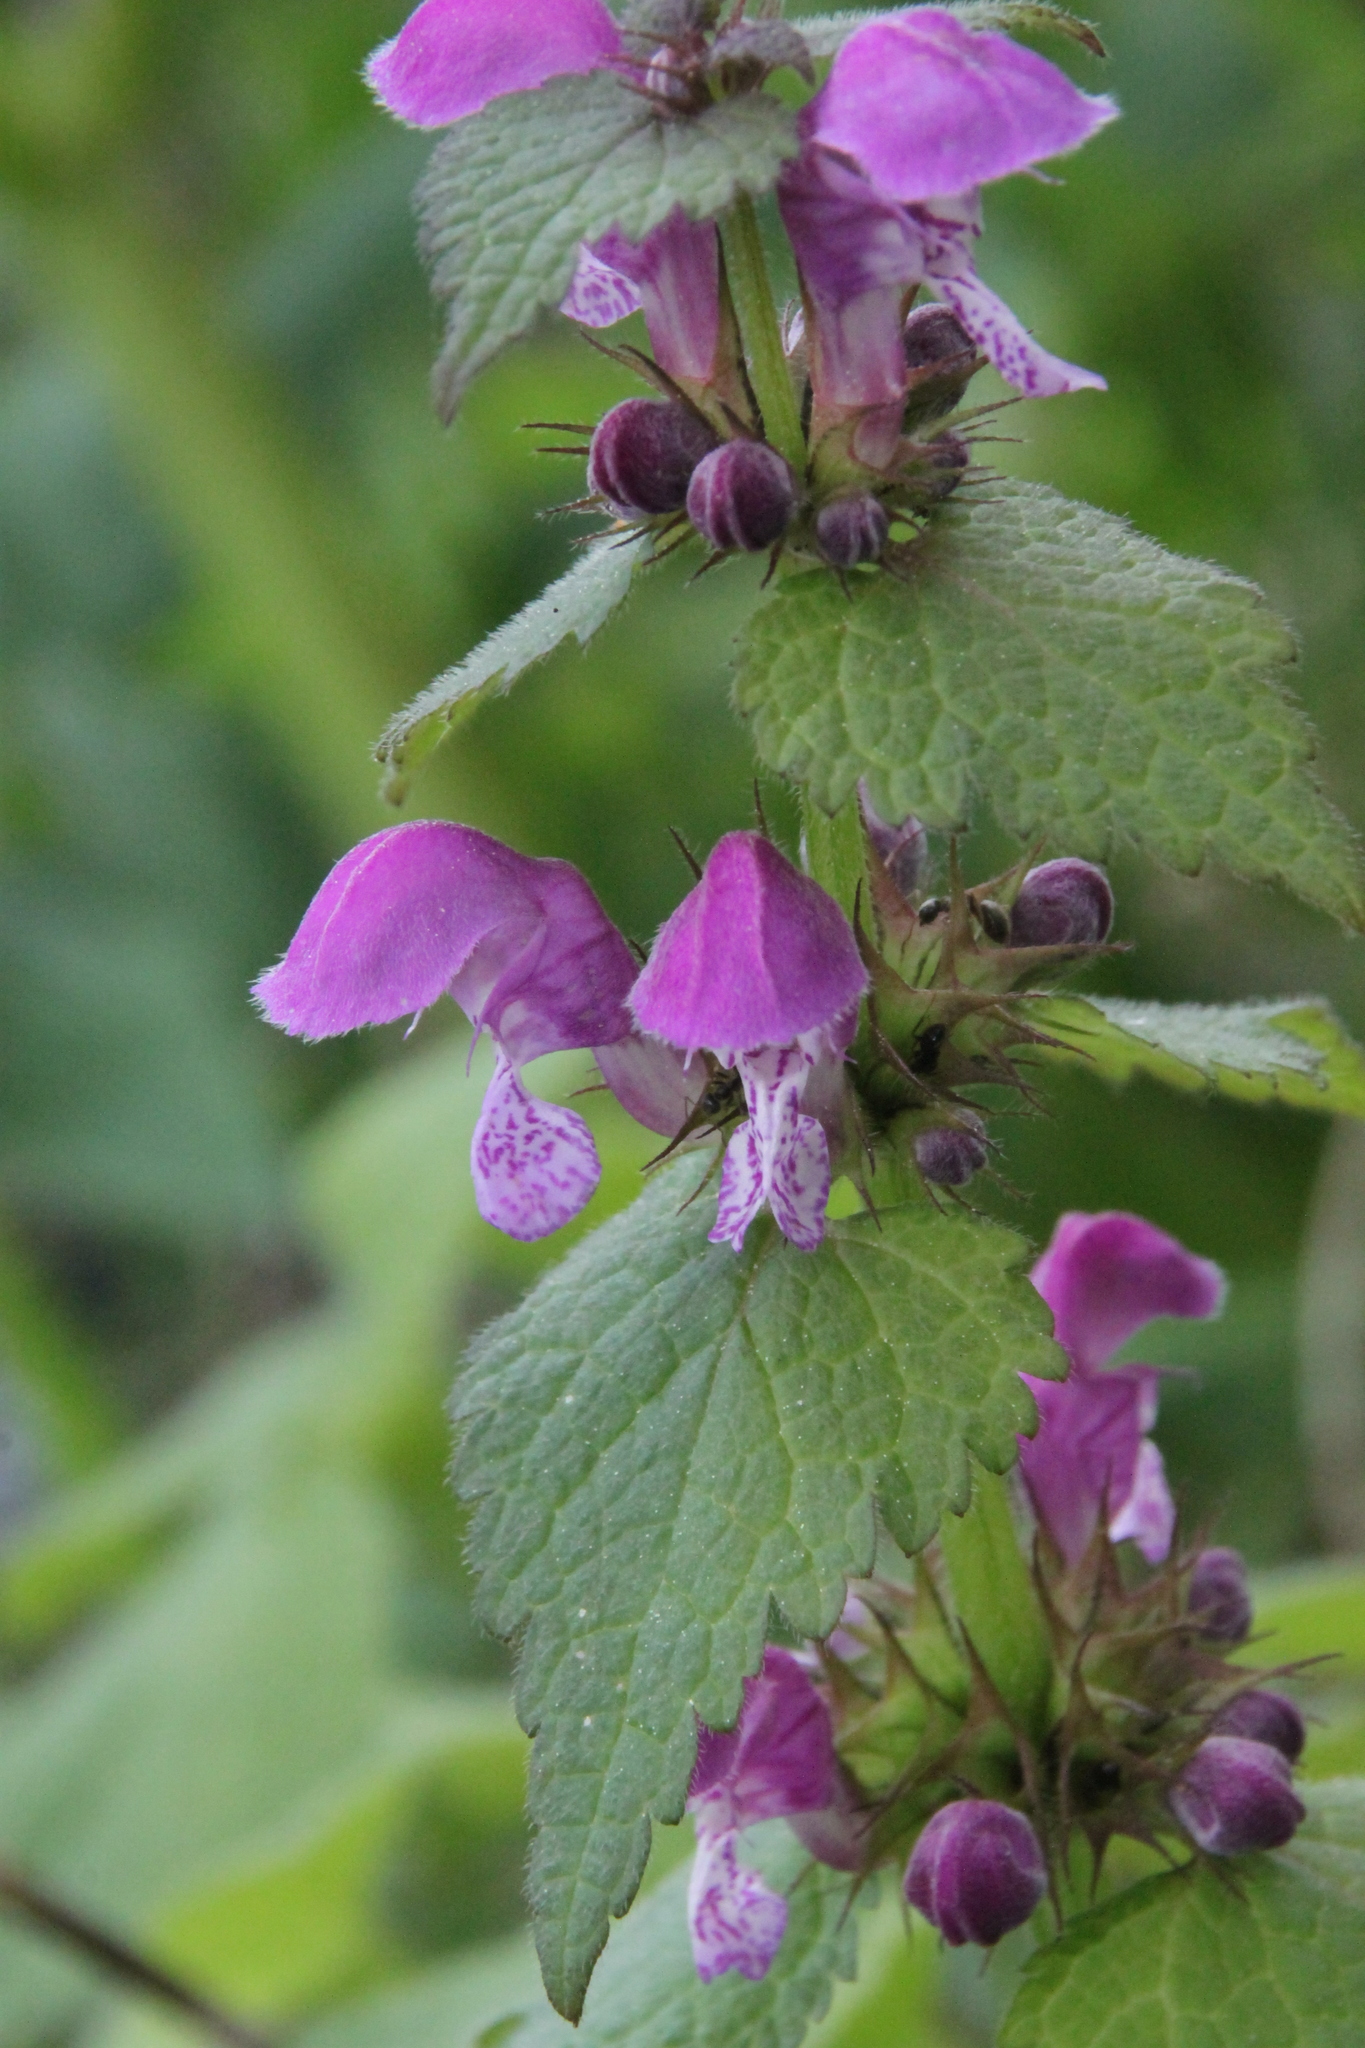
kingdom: Plantae
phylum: Tracheophyta
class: Magnoliopsida
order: Lamiales
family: Lamiaceae
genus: Lamium
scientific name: Lamium maculatum
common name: Spotted dead-nettle
